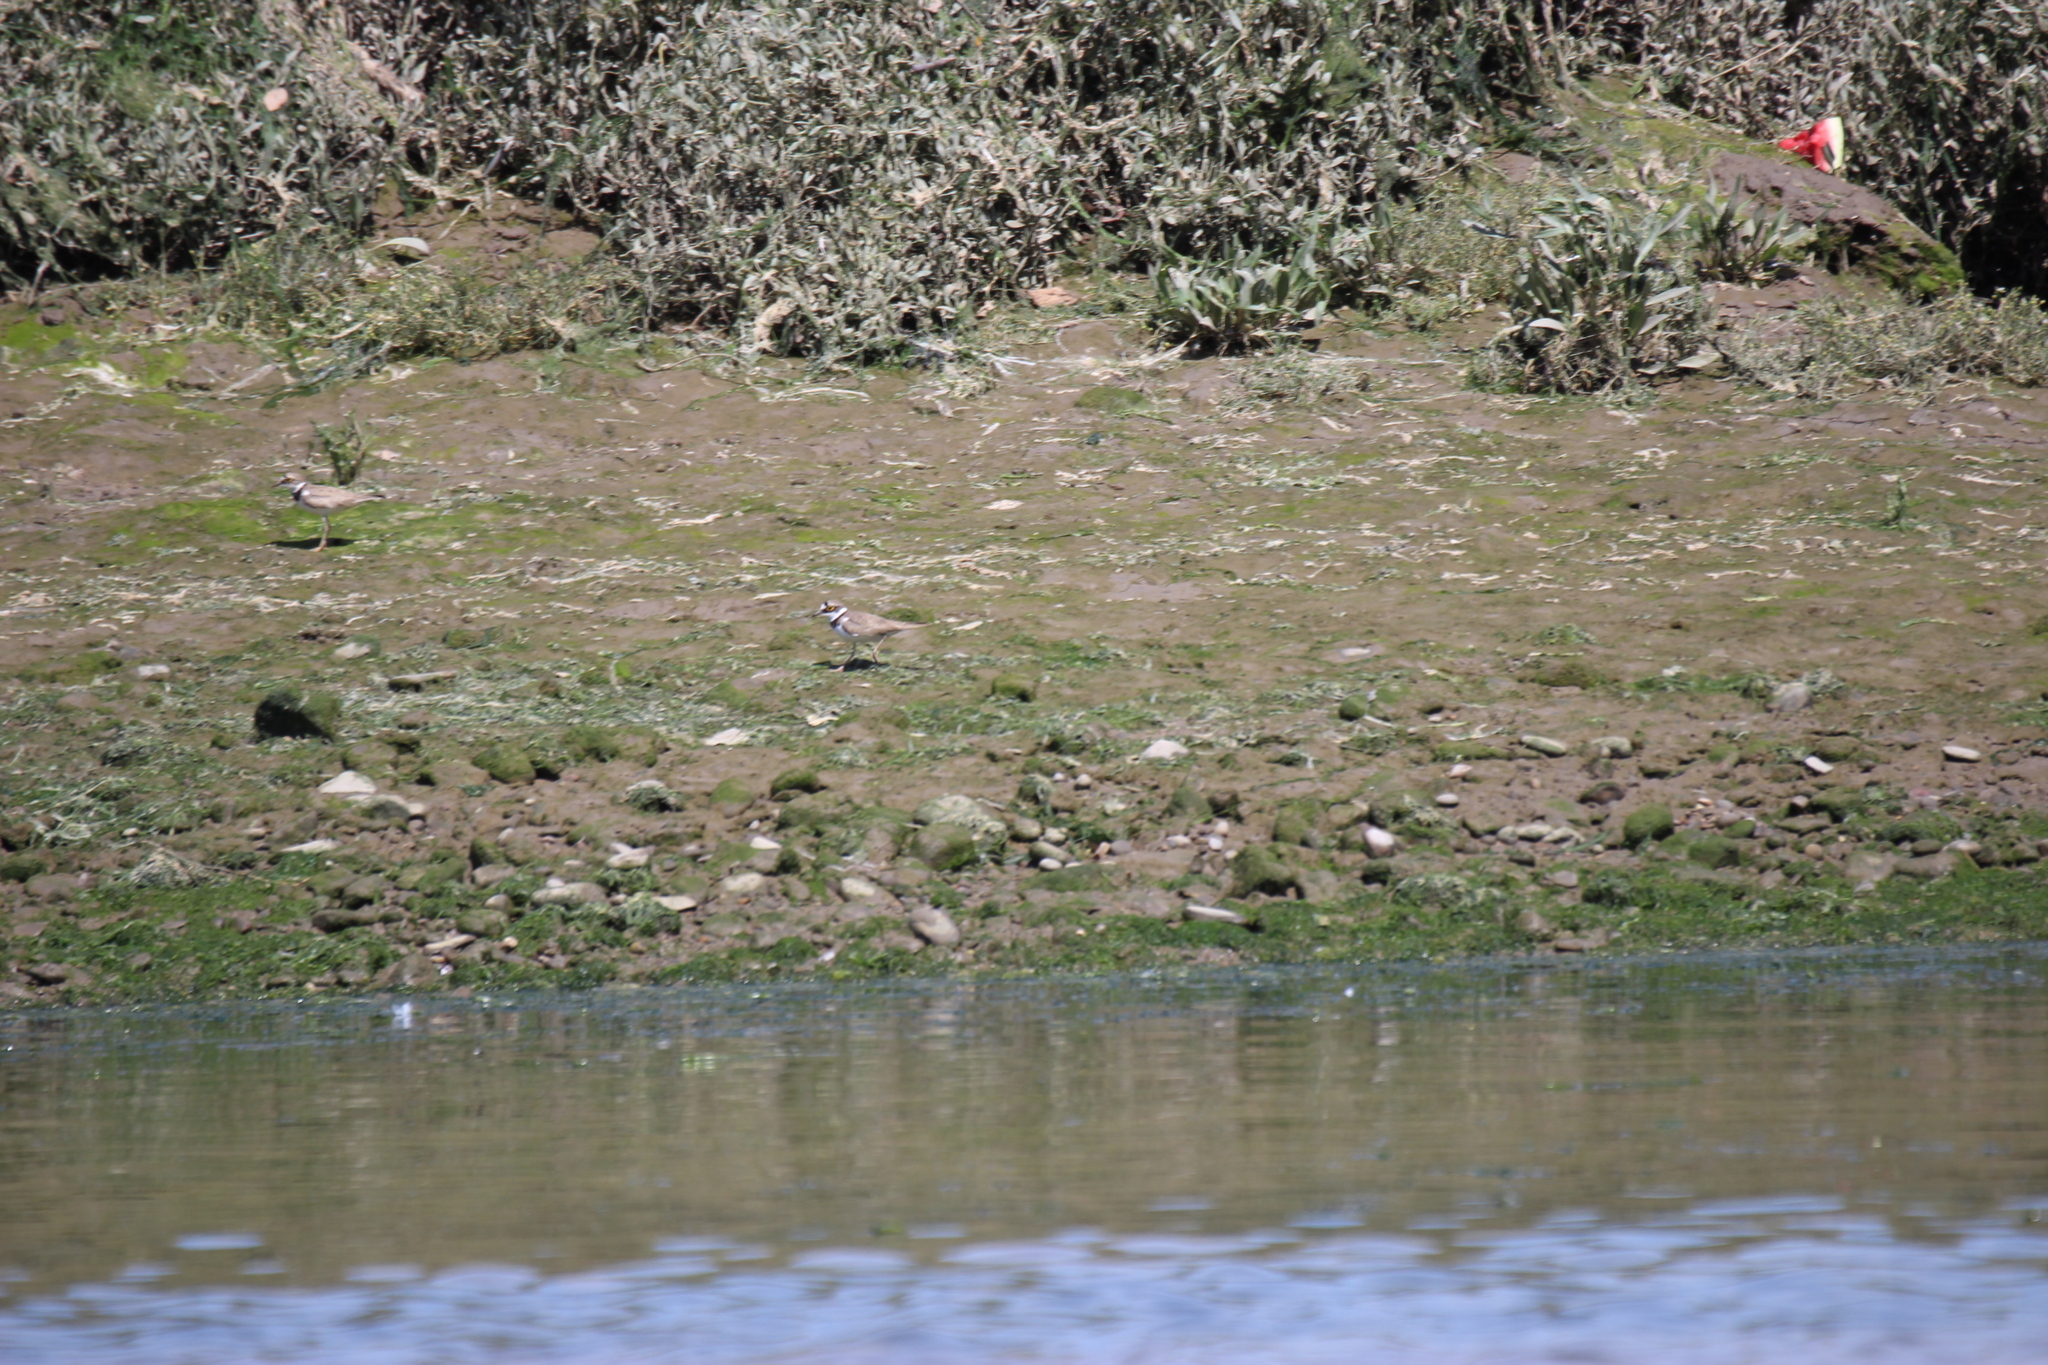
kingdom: Animalia
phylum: Chordata
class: Aves
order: Charadriiformes
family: Charadriidae
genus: Charadrius
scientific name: Charadrius dubius
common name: Little ringed plover
